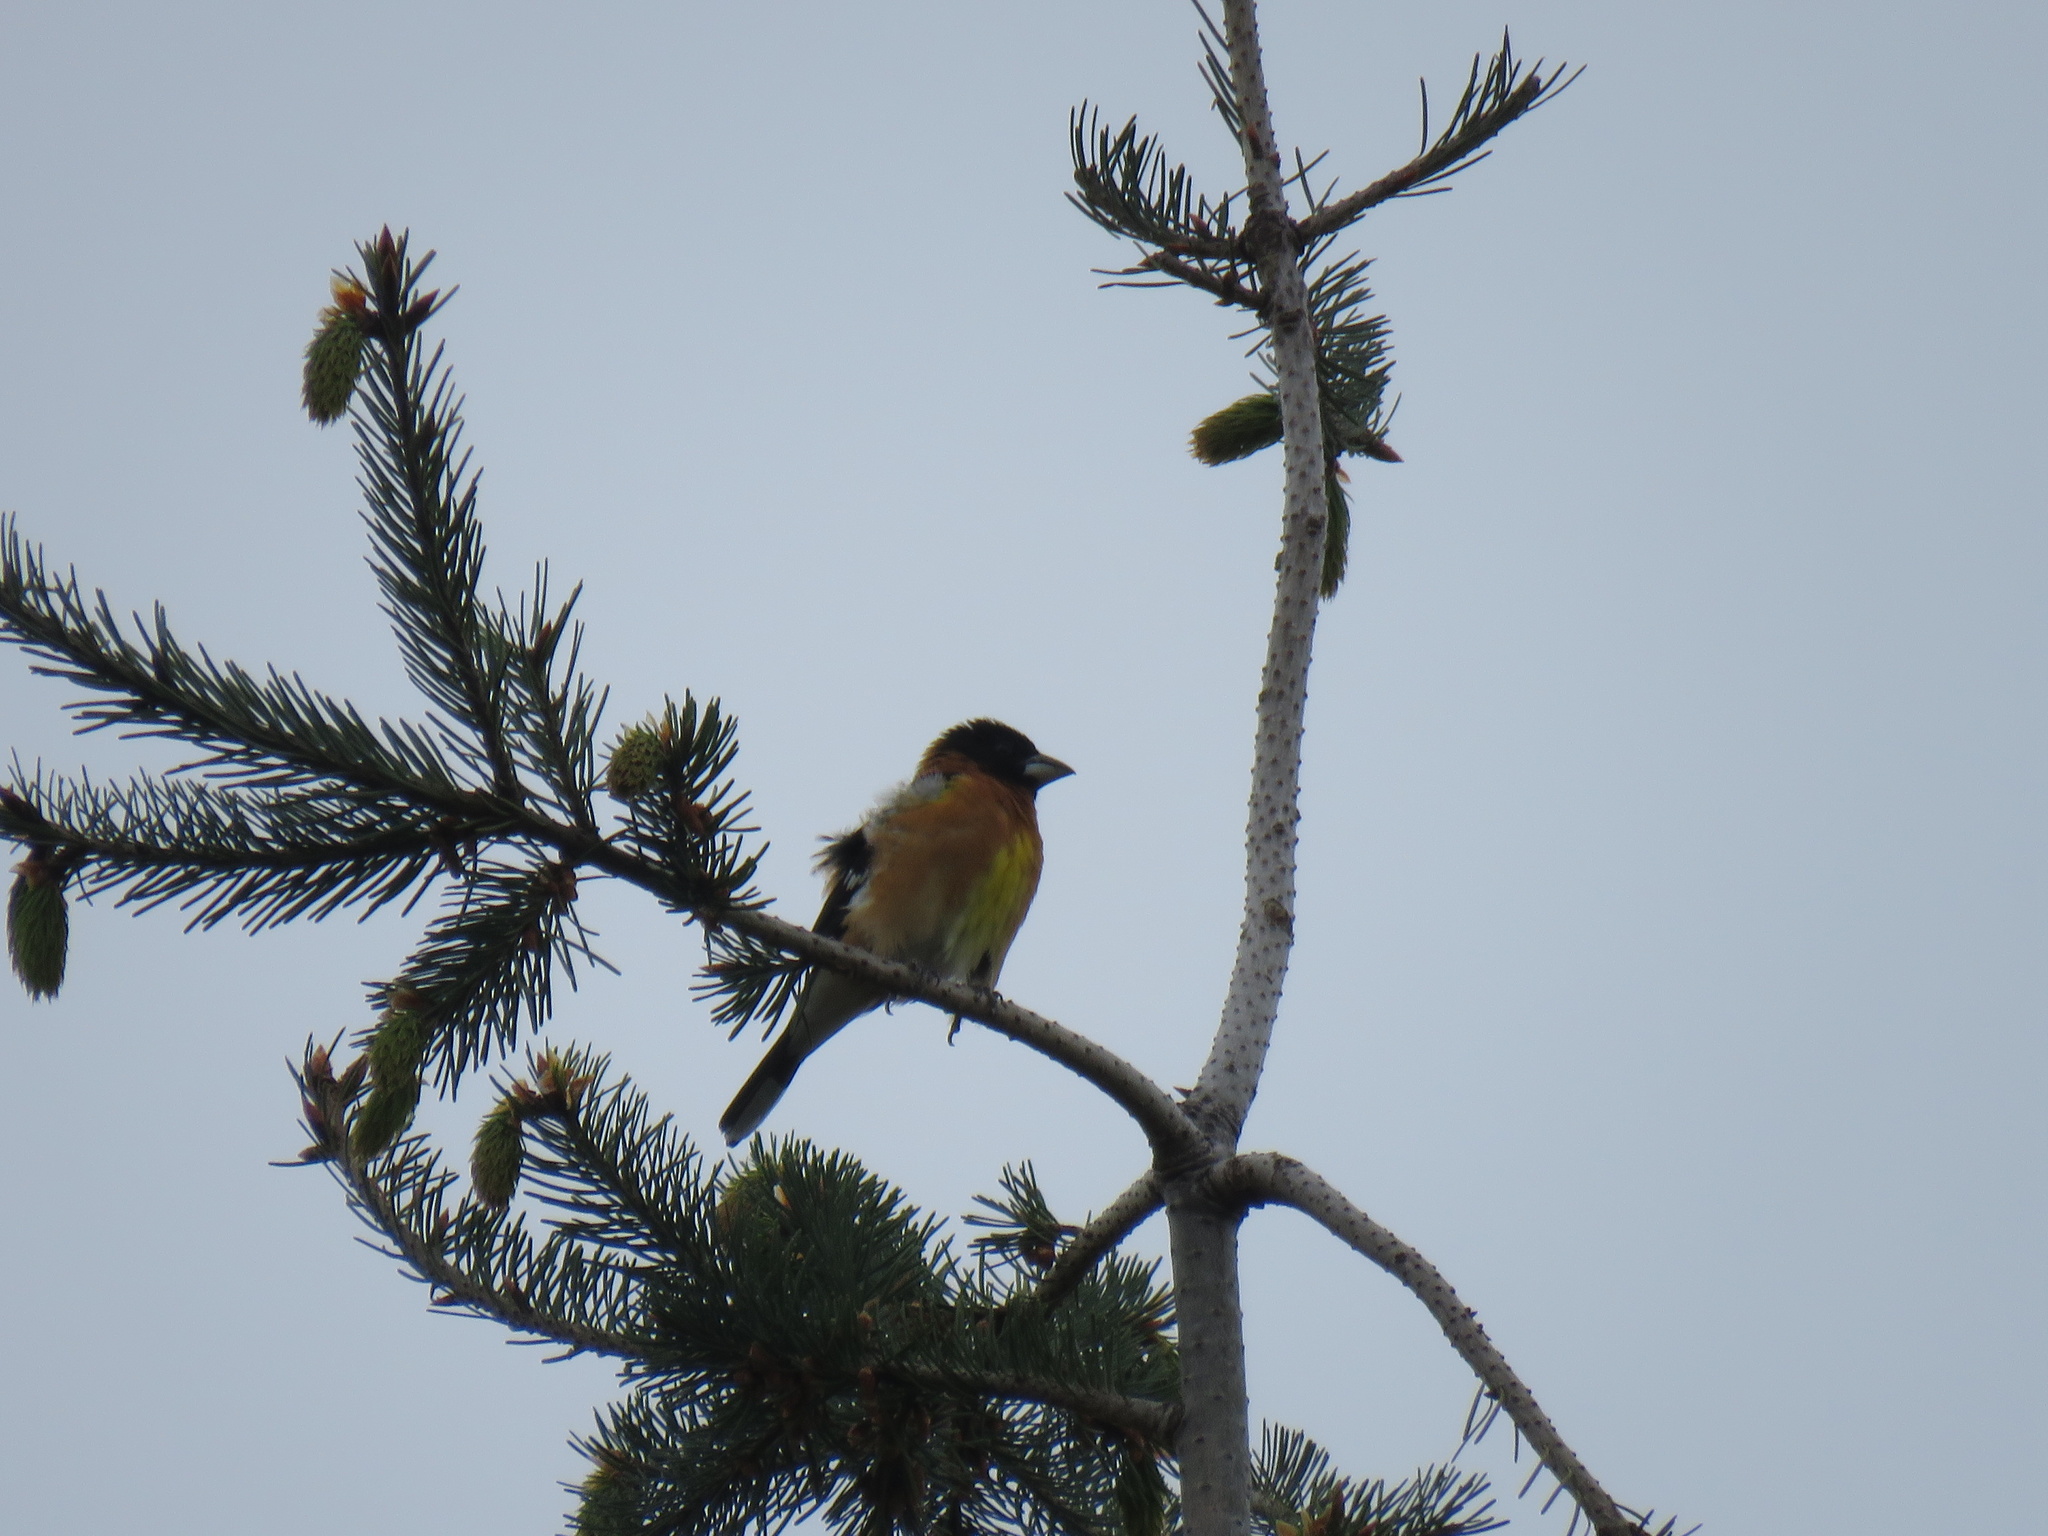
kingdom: Animalia
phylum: Chordata
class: Aves
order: Passeriformes
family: Cardinalidae
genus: Pheucticus
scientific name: Pheucticus melanocephalus
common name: Black-headed grosbeak
